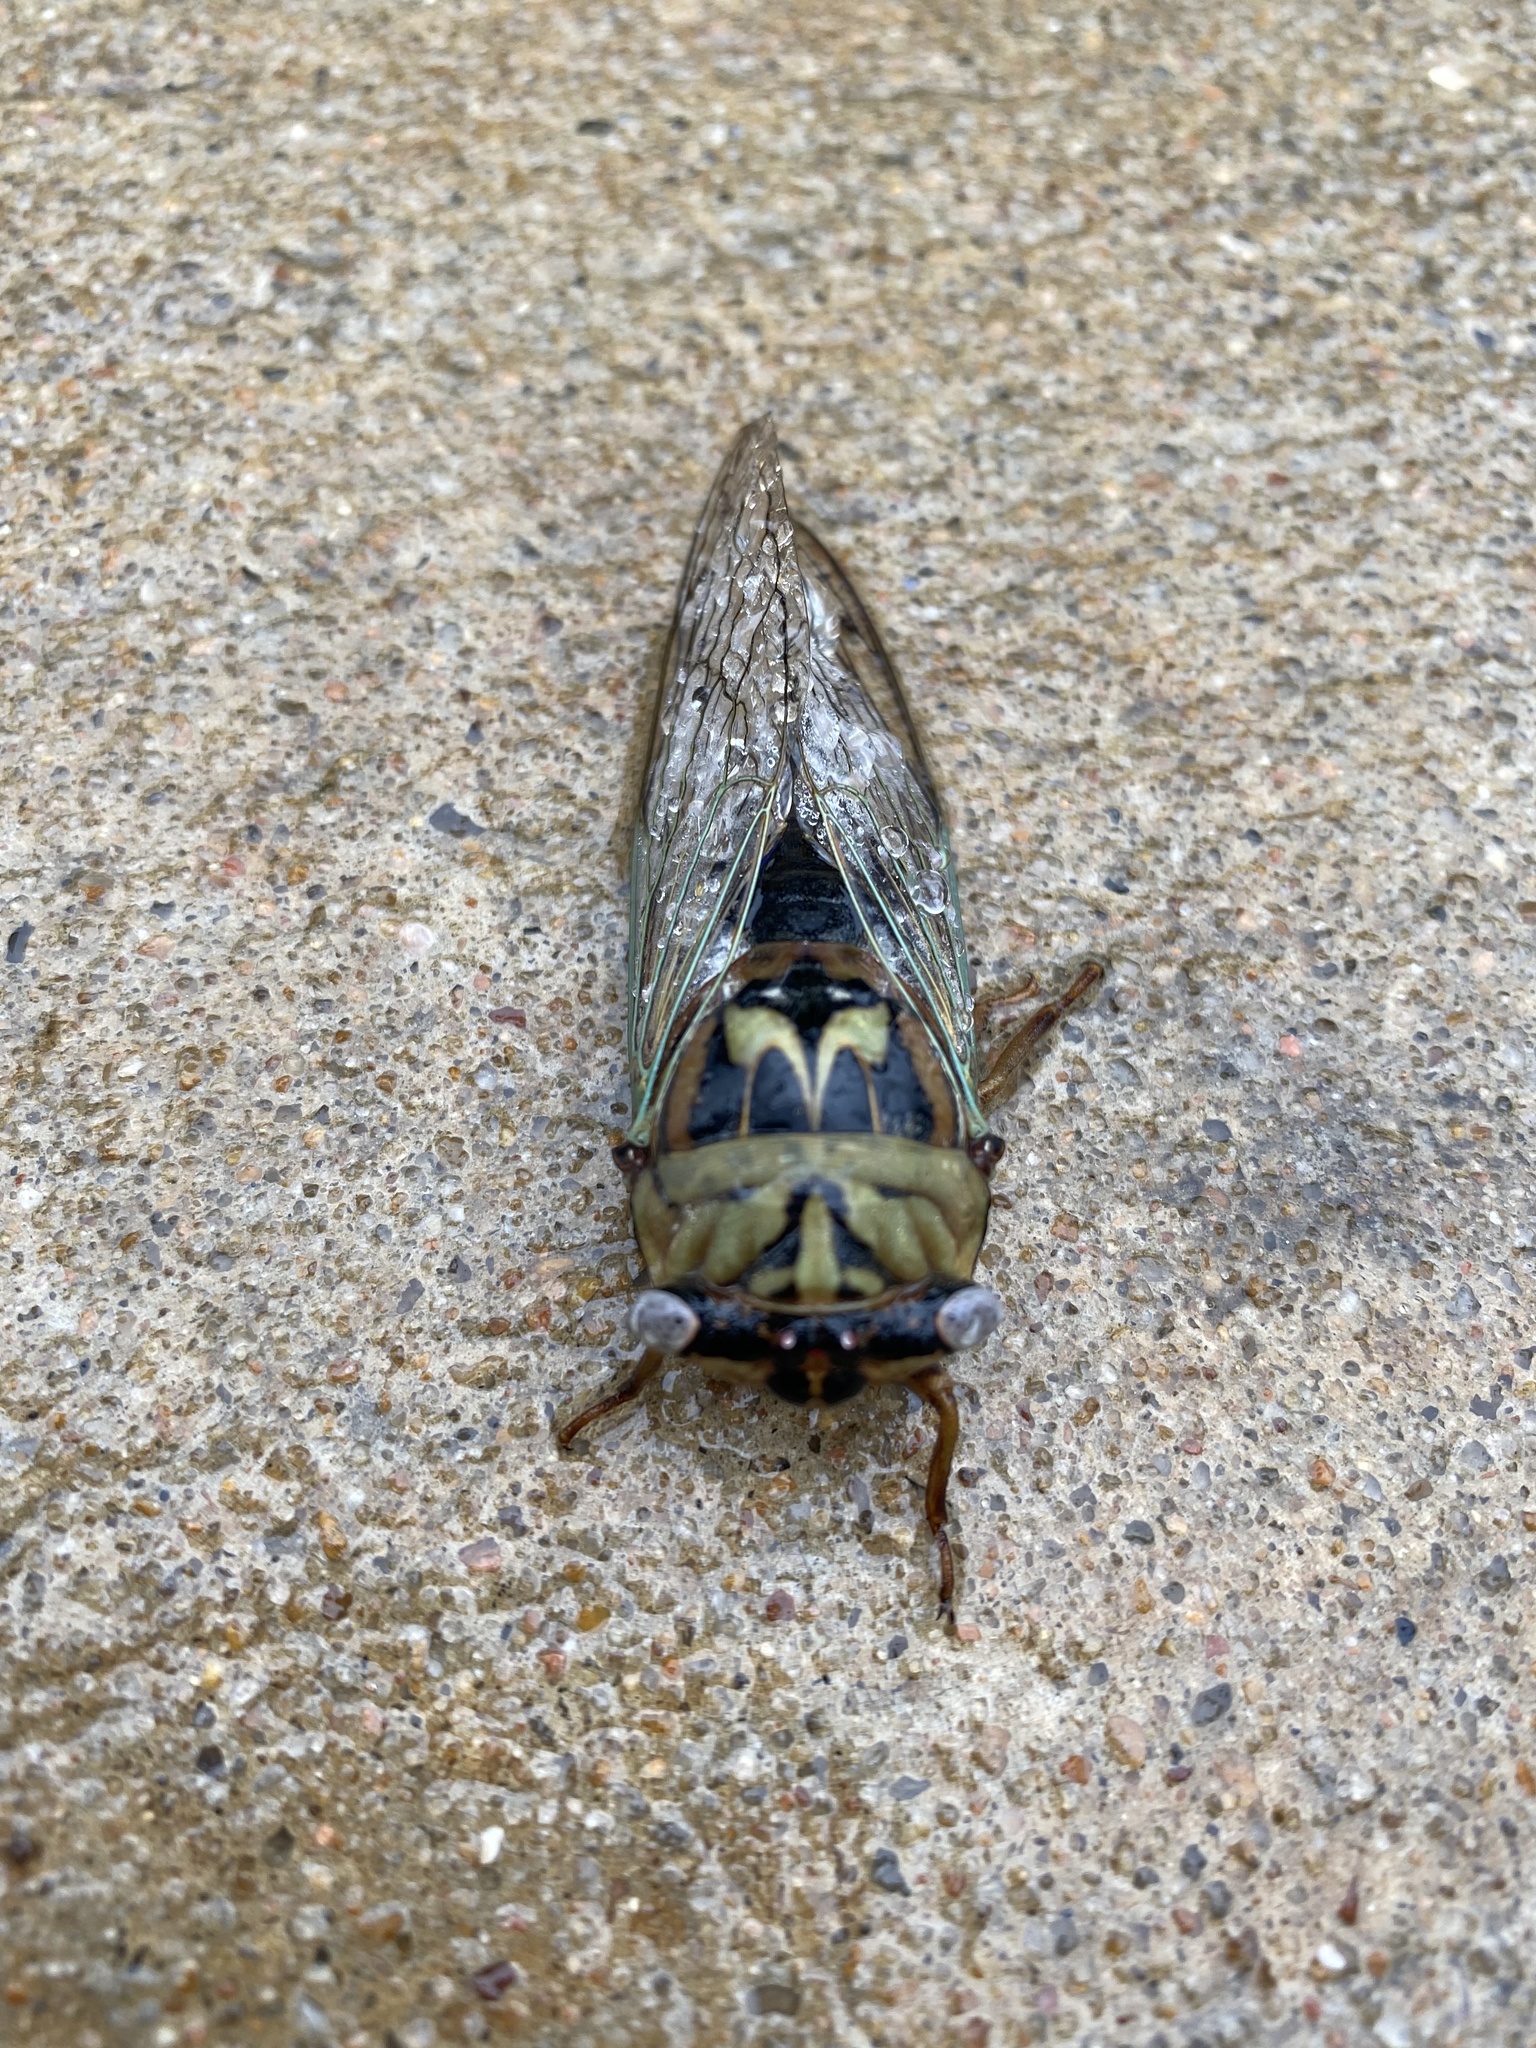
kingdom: Animalia
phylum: Arthropoda
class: Insecta
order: Hemiptera
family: Cicadidae
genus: Megatibicen
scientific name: Megatibicen resh
